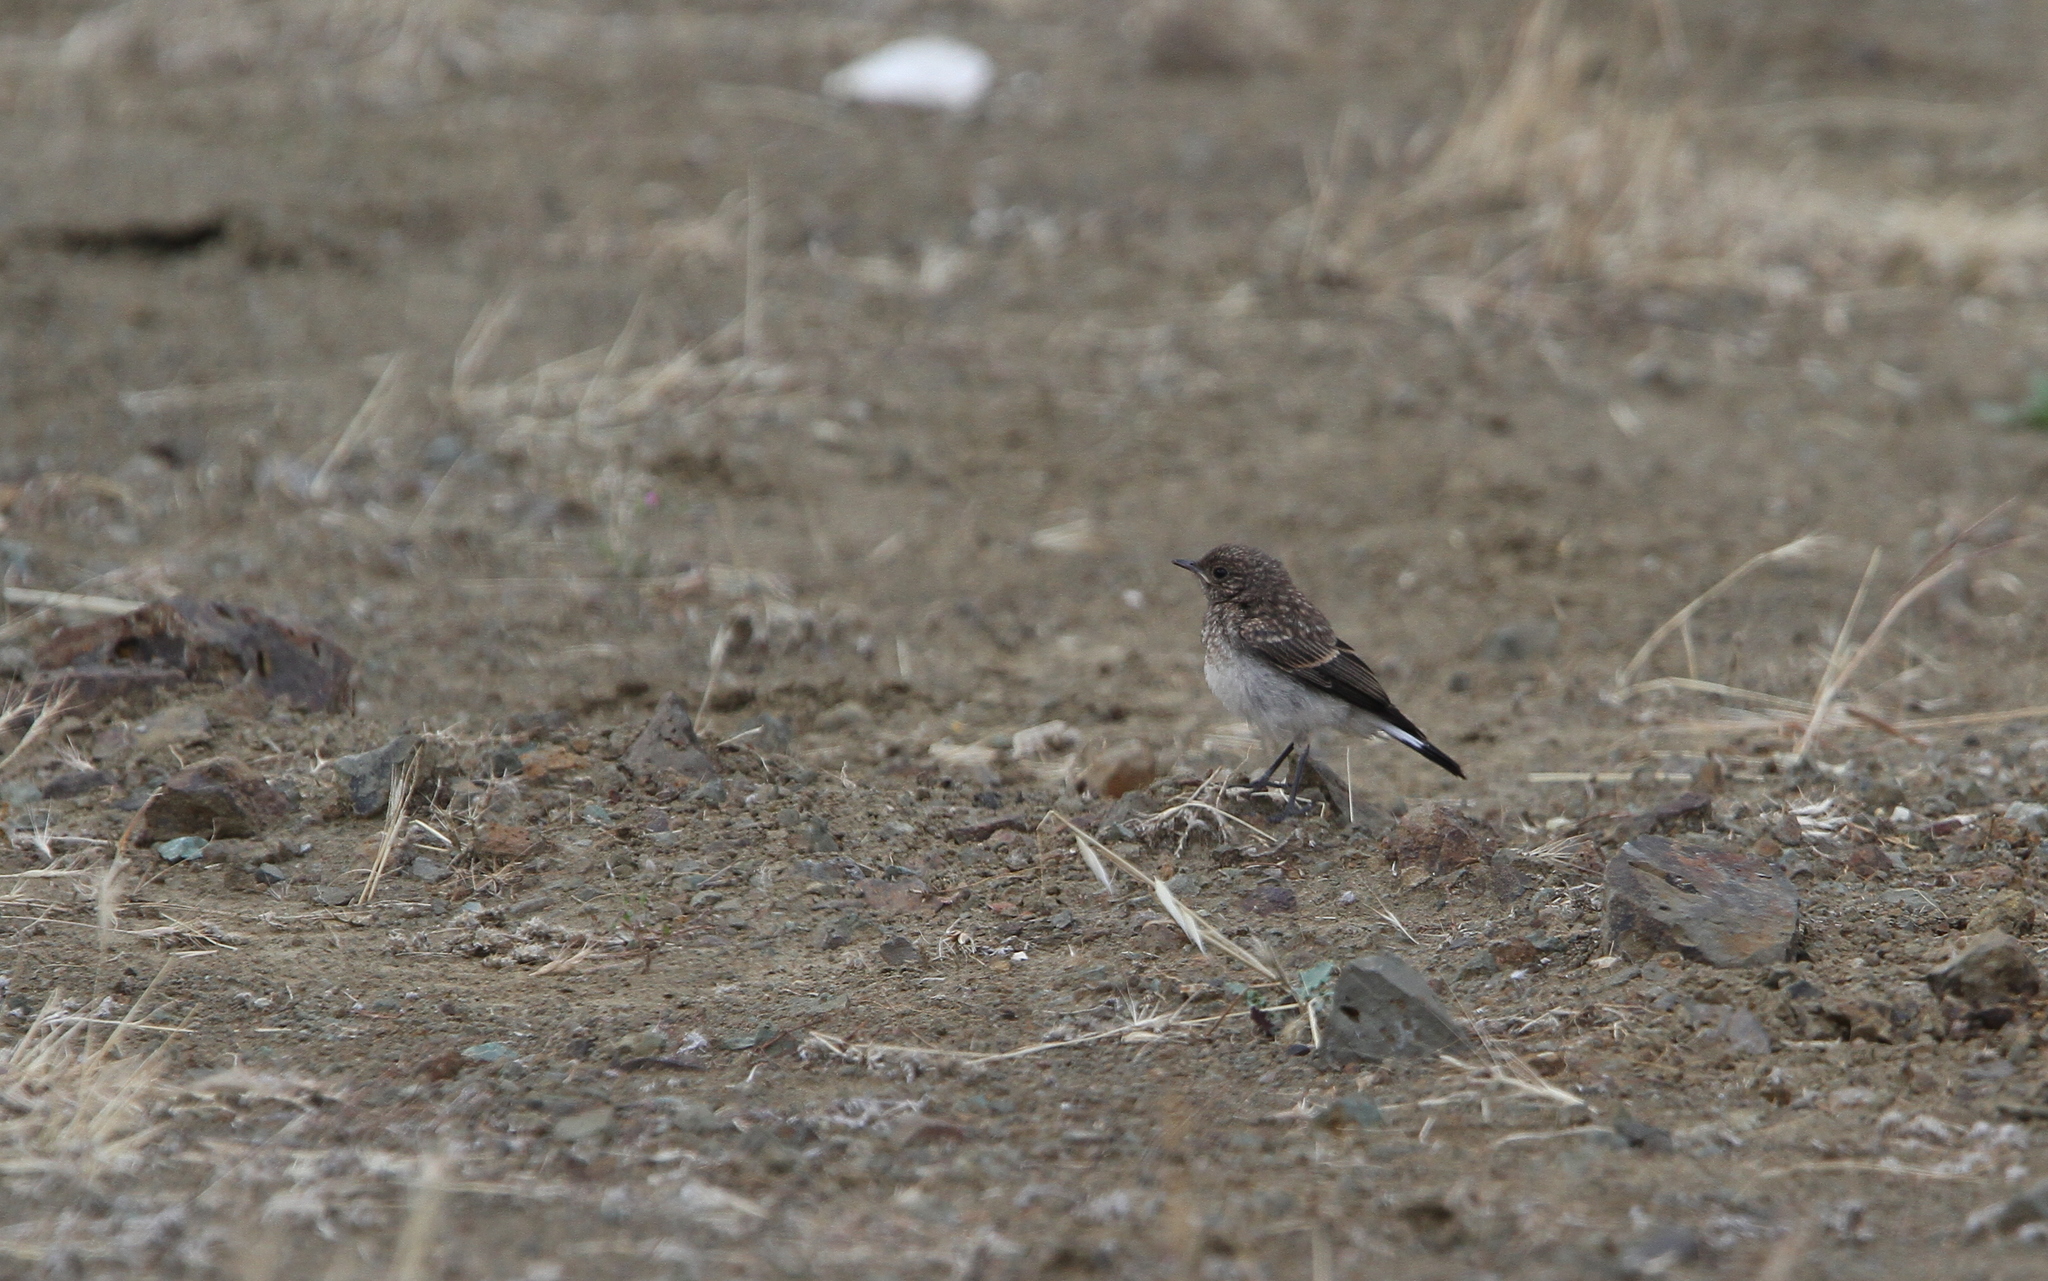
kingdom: Animalia
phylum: Chordata
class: Aves
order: Passeriformes
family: Muscicapidae
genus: Oenanthe
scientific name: Oenanthe cypriaca
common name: Cyprus wheatear
